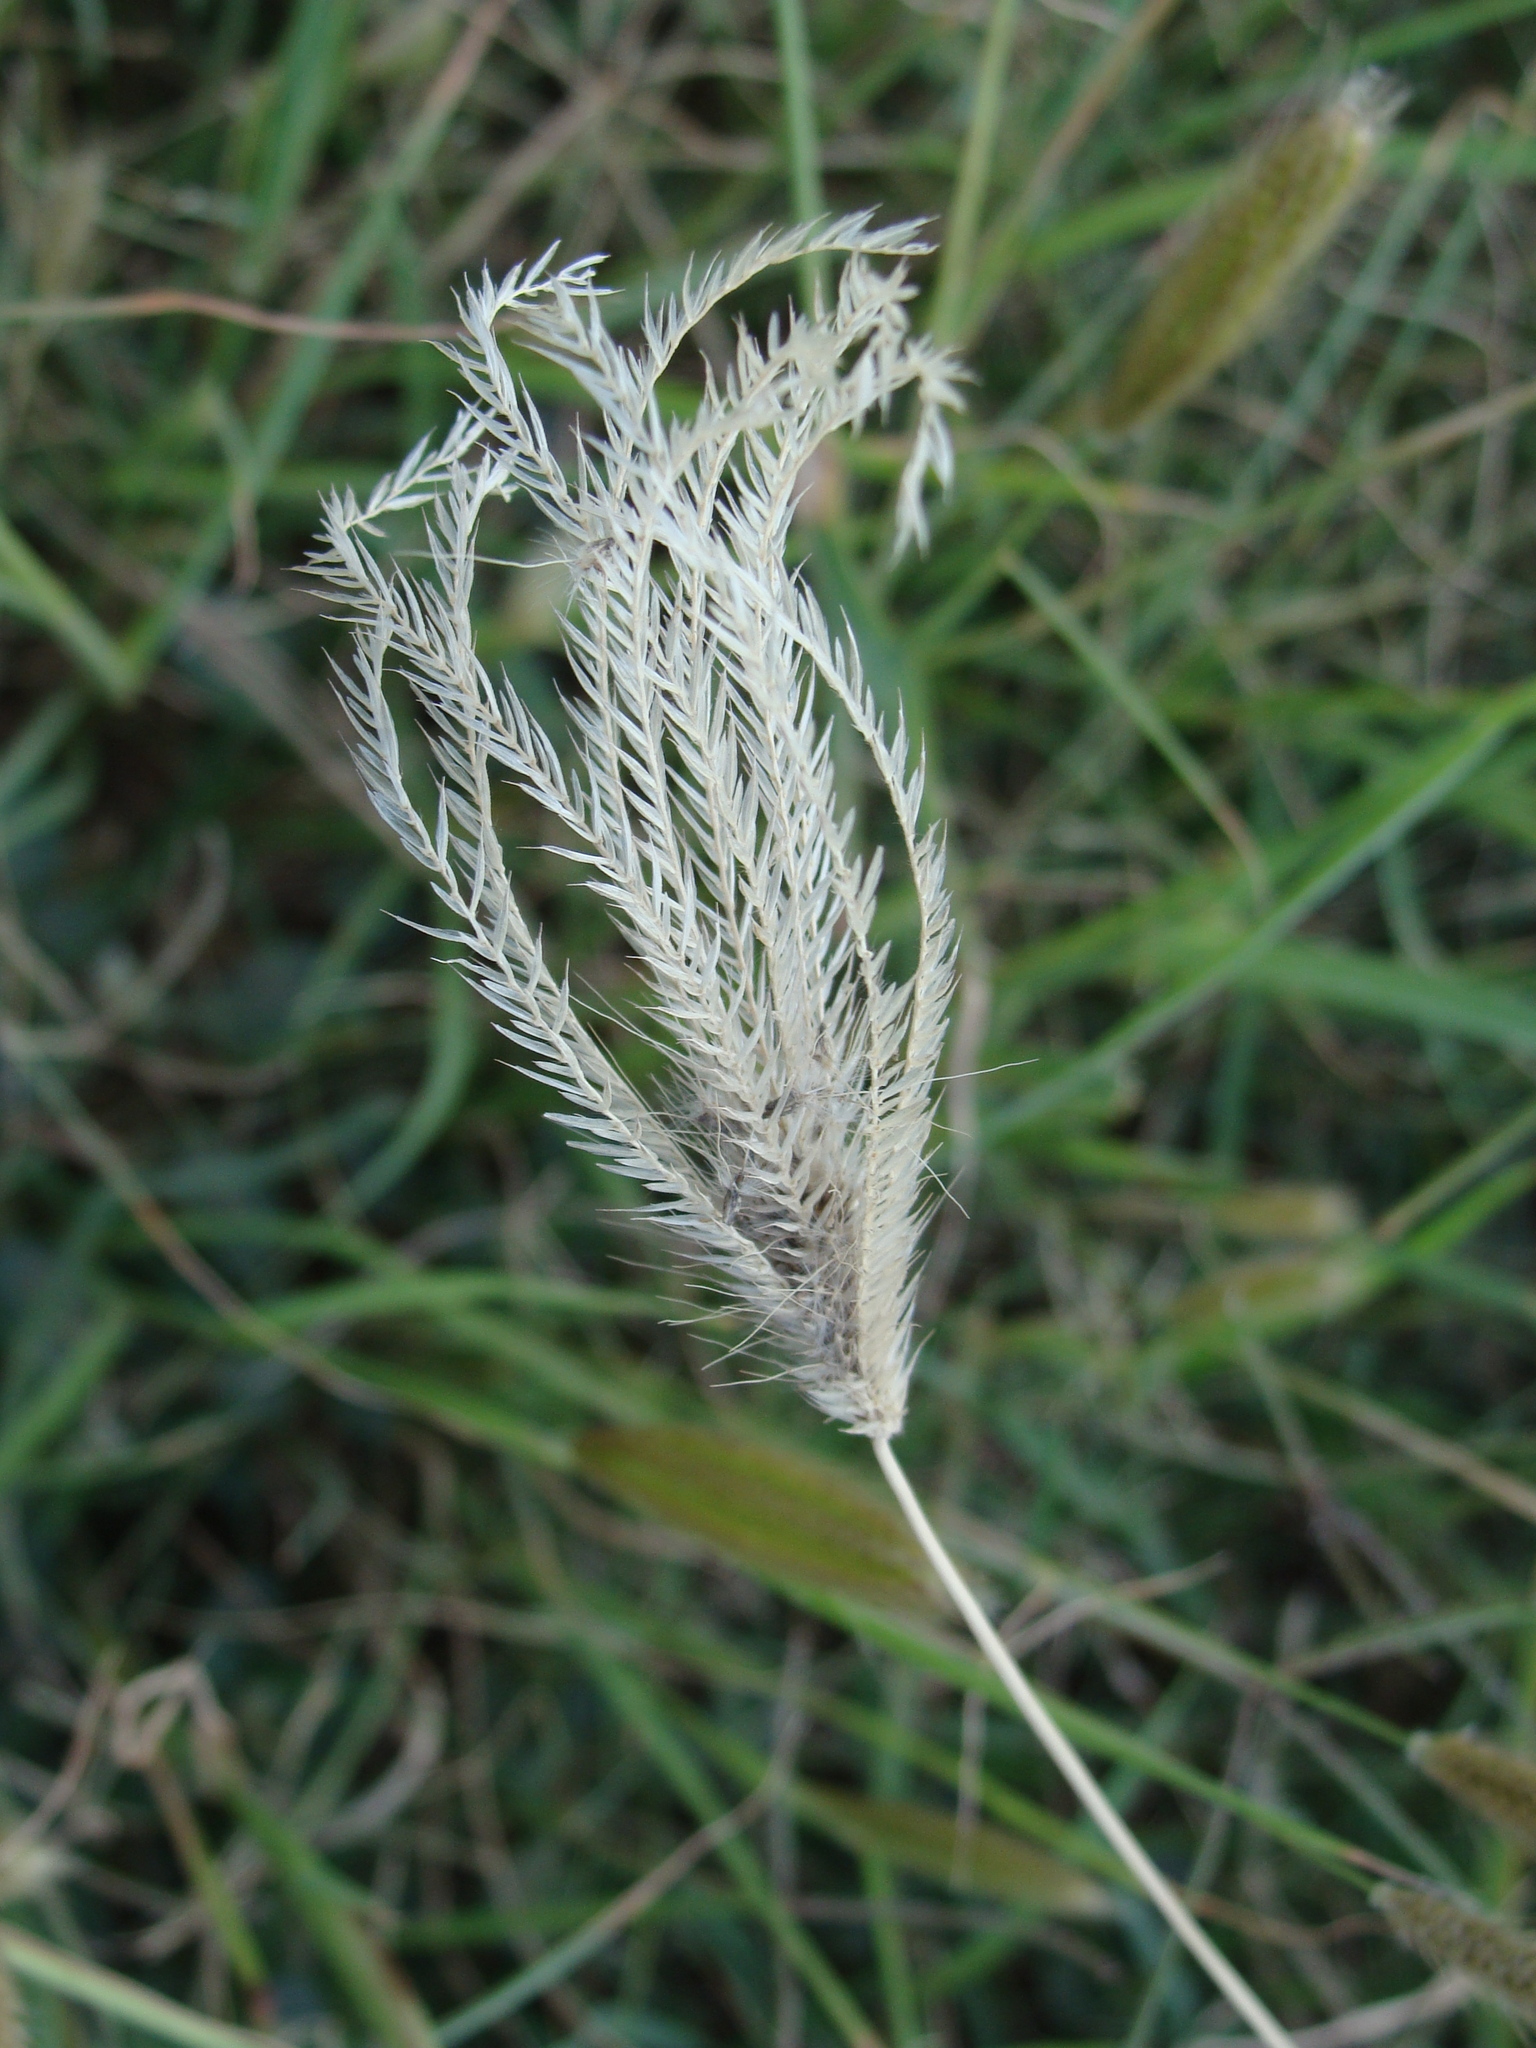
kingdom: Plantae
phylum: Tracheophyta
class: Liliopsida
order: Poales
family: Poaceae
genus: Chloris
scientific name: Chloris virgata
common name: Feathery rhodes-grass
